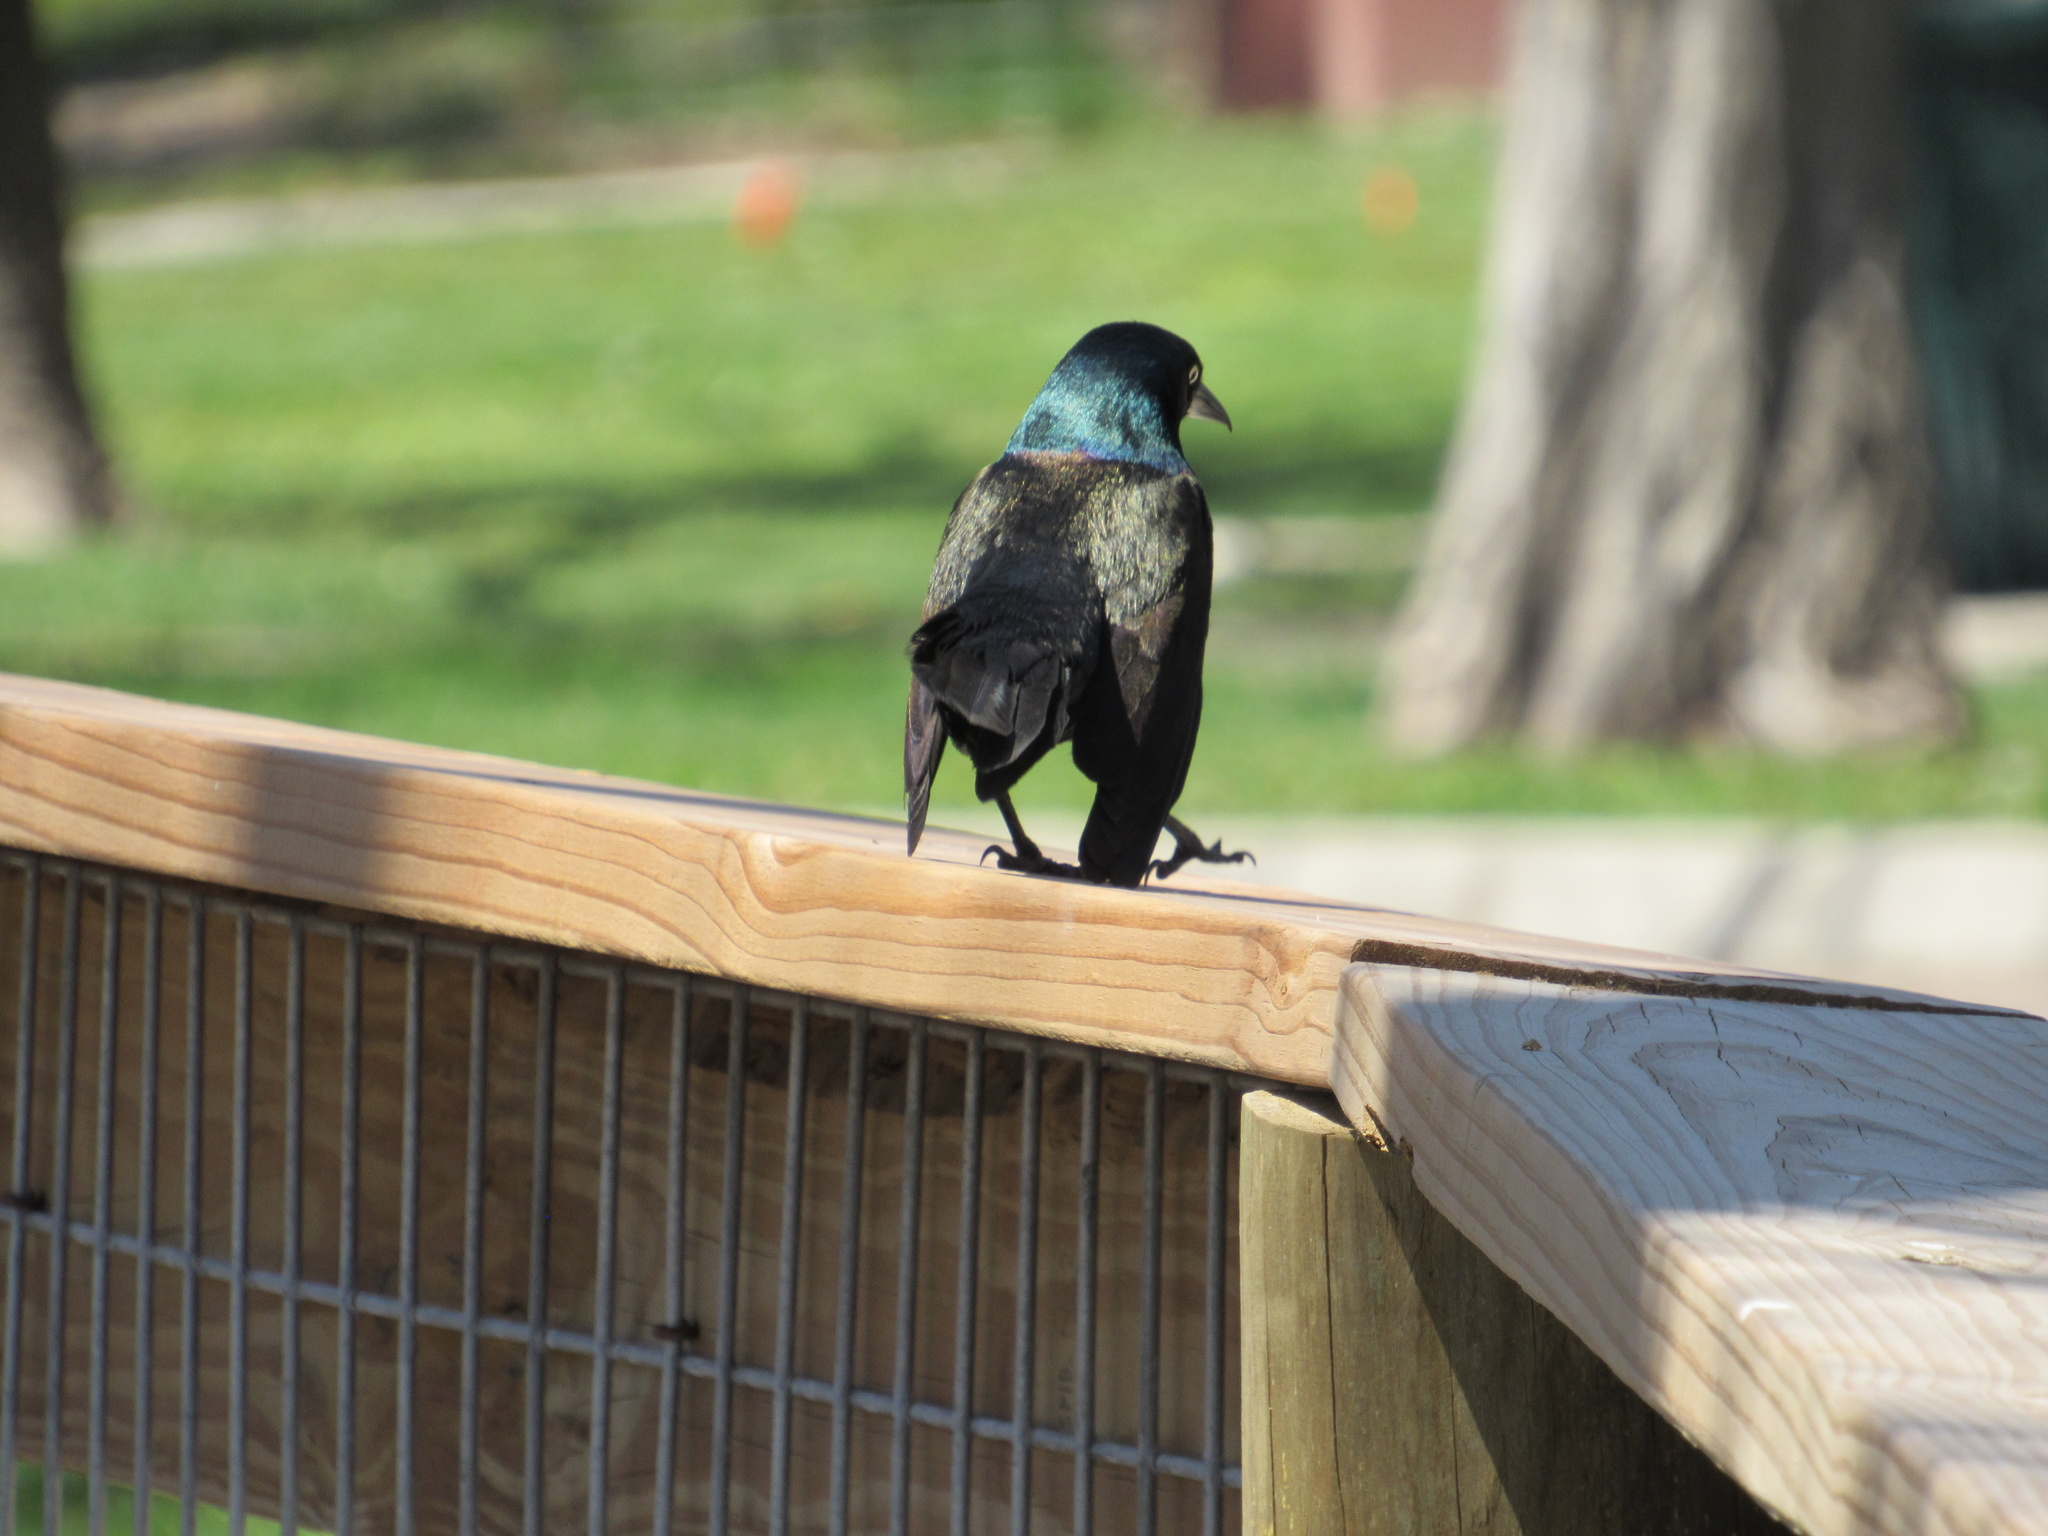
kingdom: Animalia
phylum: Chordata
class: Aves
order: Passeriformes
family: Icteridae
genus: Quiscalus
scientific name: Quiscalus quiscula
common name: Common grackle
